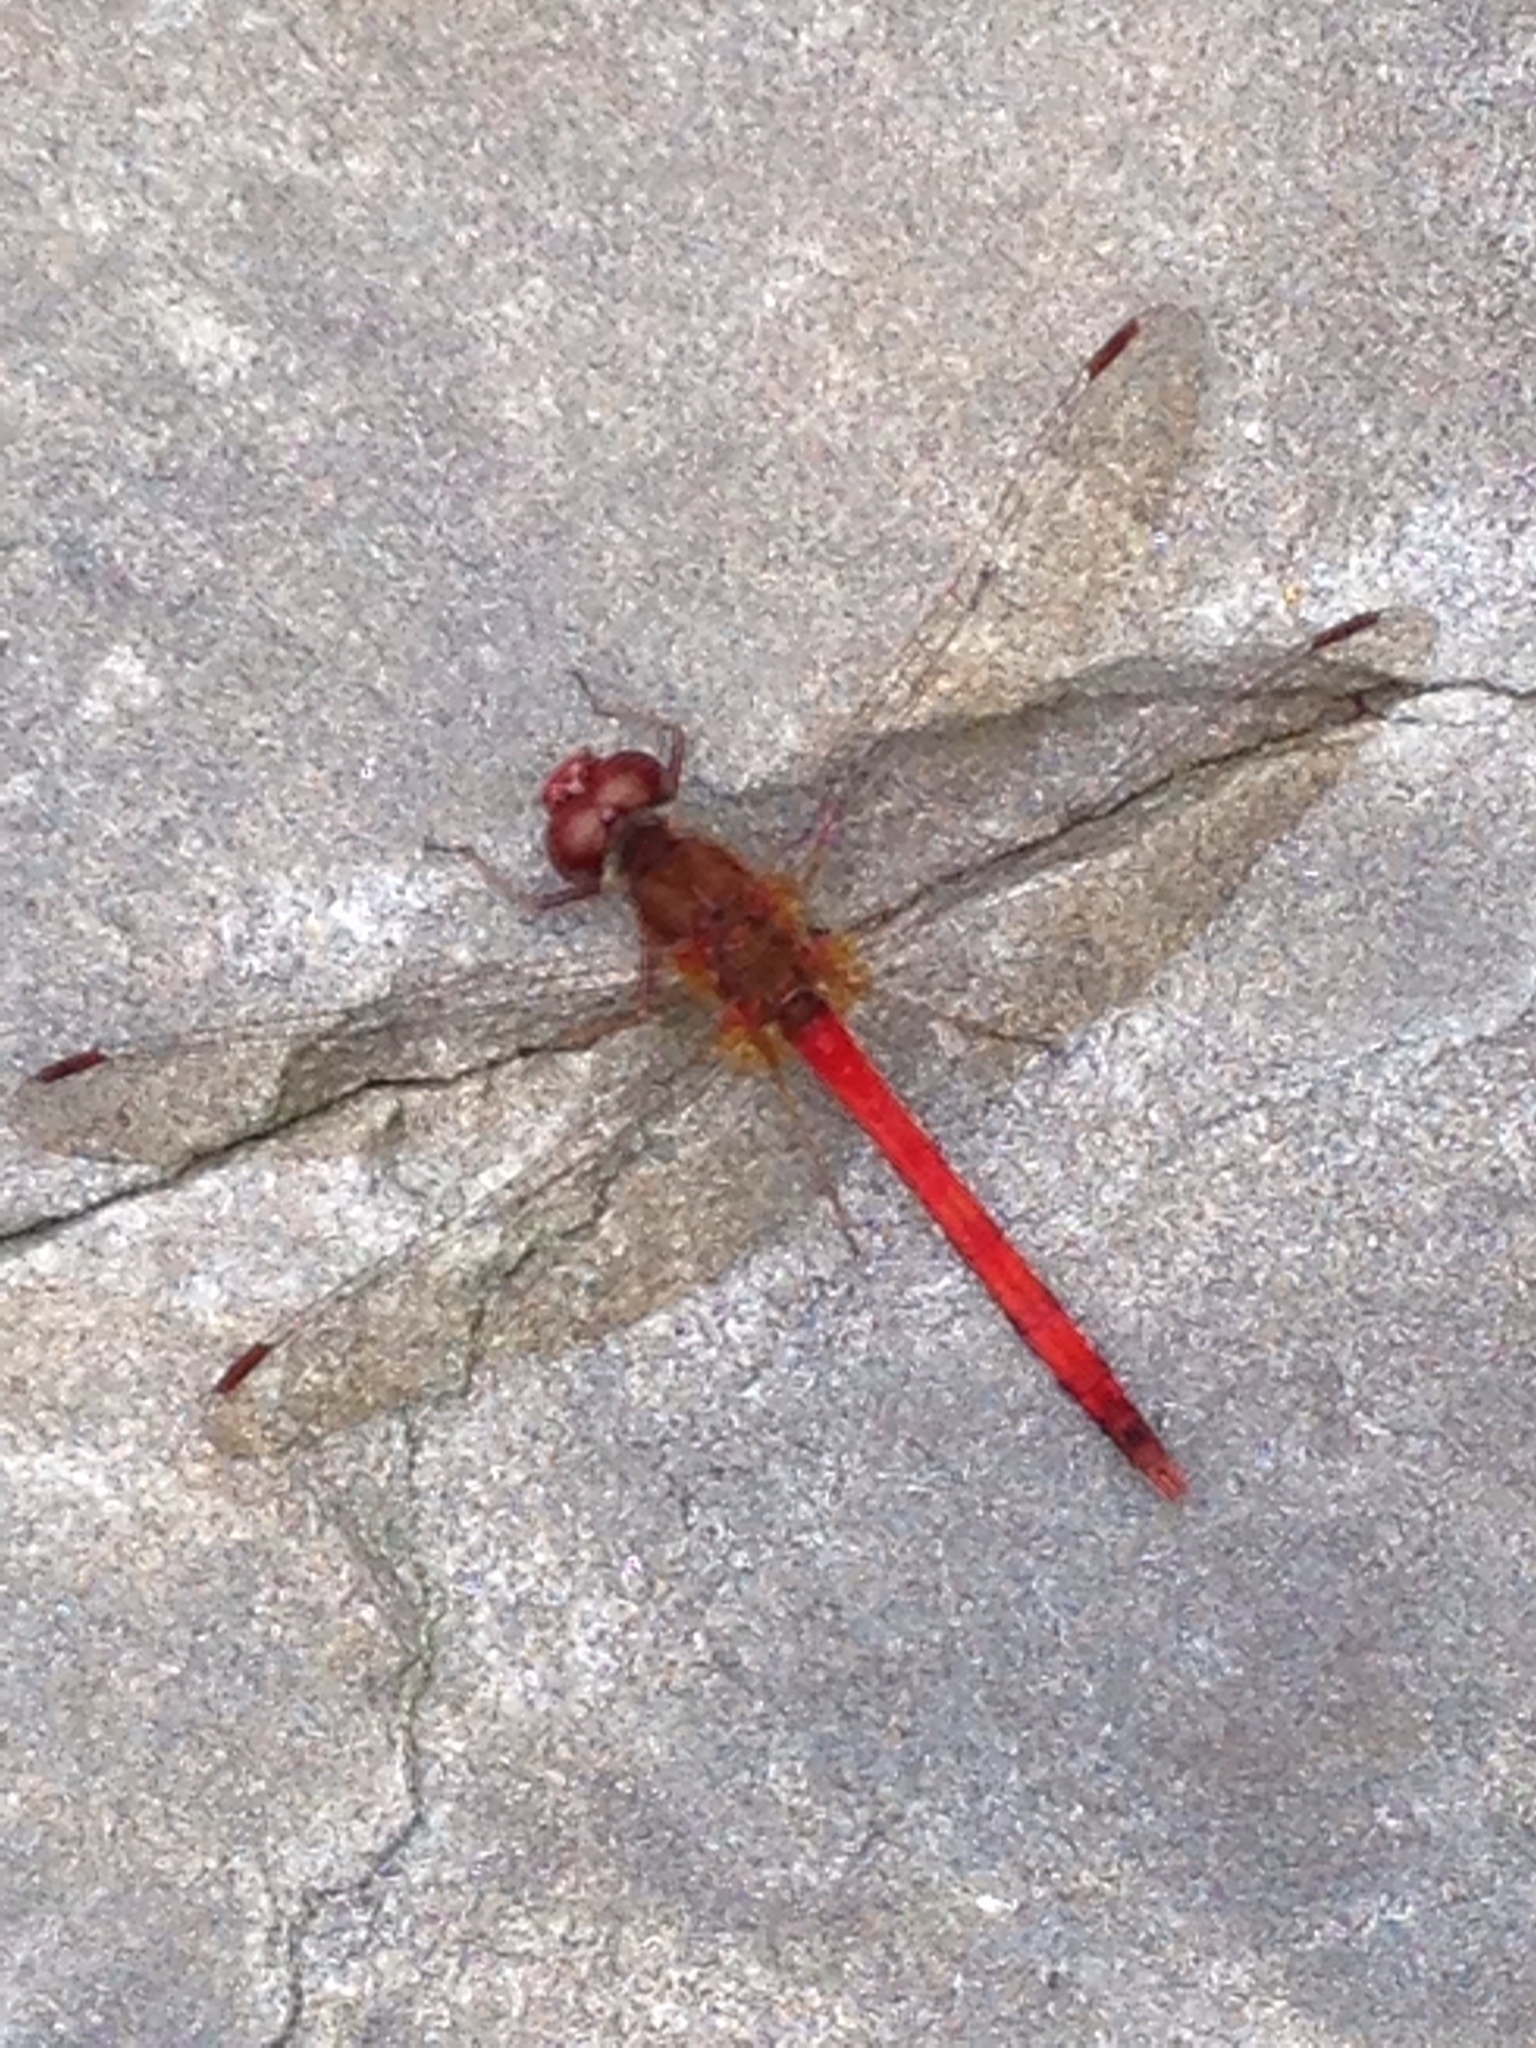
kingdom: Animalia
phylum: Arthropoda
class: Insecta
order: Odonata
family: Libellulidae
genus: Sympetrum
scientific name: Sympetrum vicinum
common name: Autumn meadowhawk
